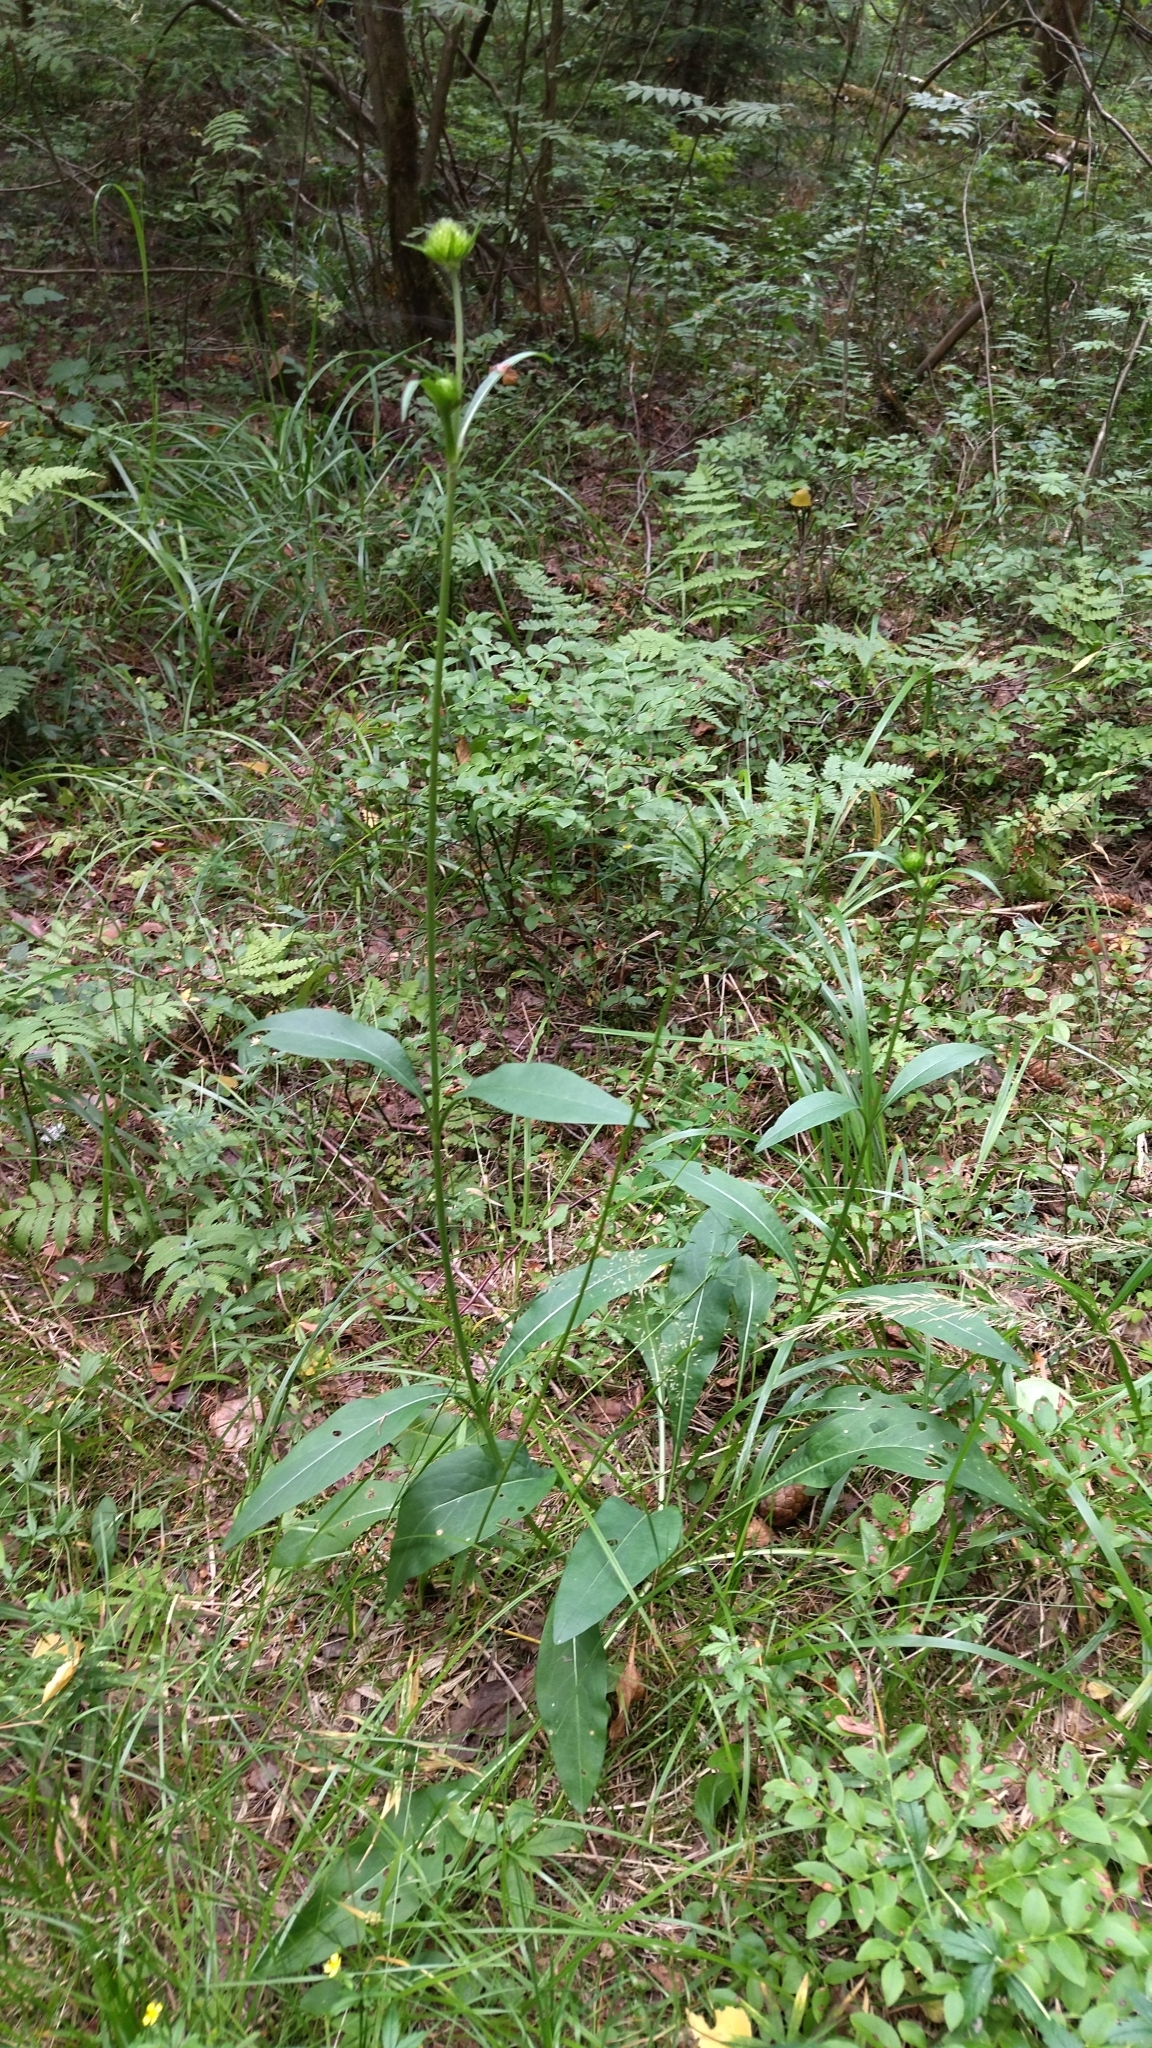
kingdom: Plantae
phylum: Tracheophyta
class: Magnoliopsida
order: Dipsacales
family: Caprifoliaceae
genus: Succisa
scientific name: Succisa pratensis
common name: Devil's-bit
